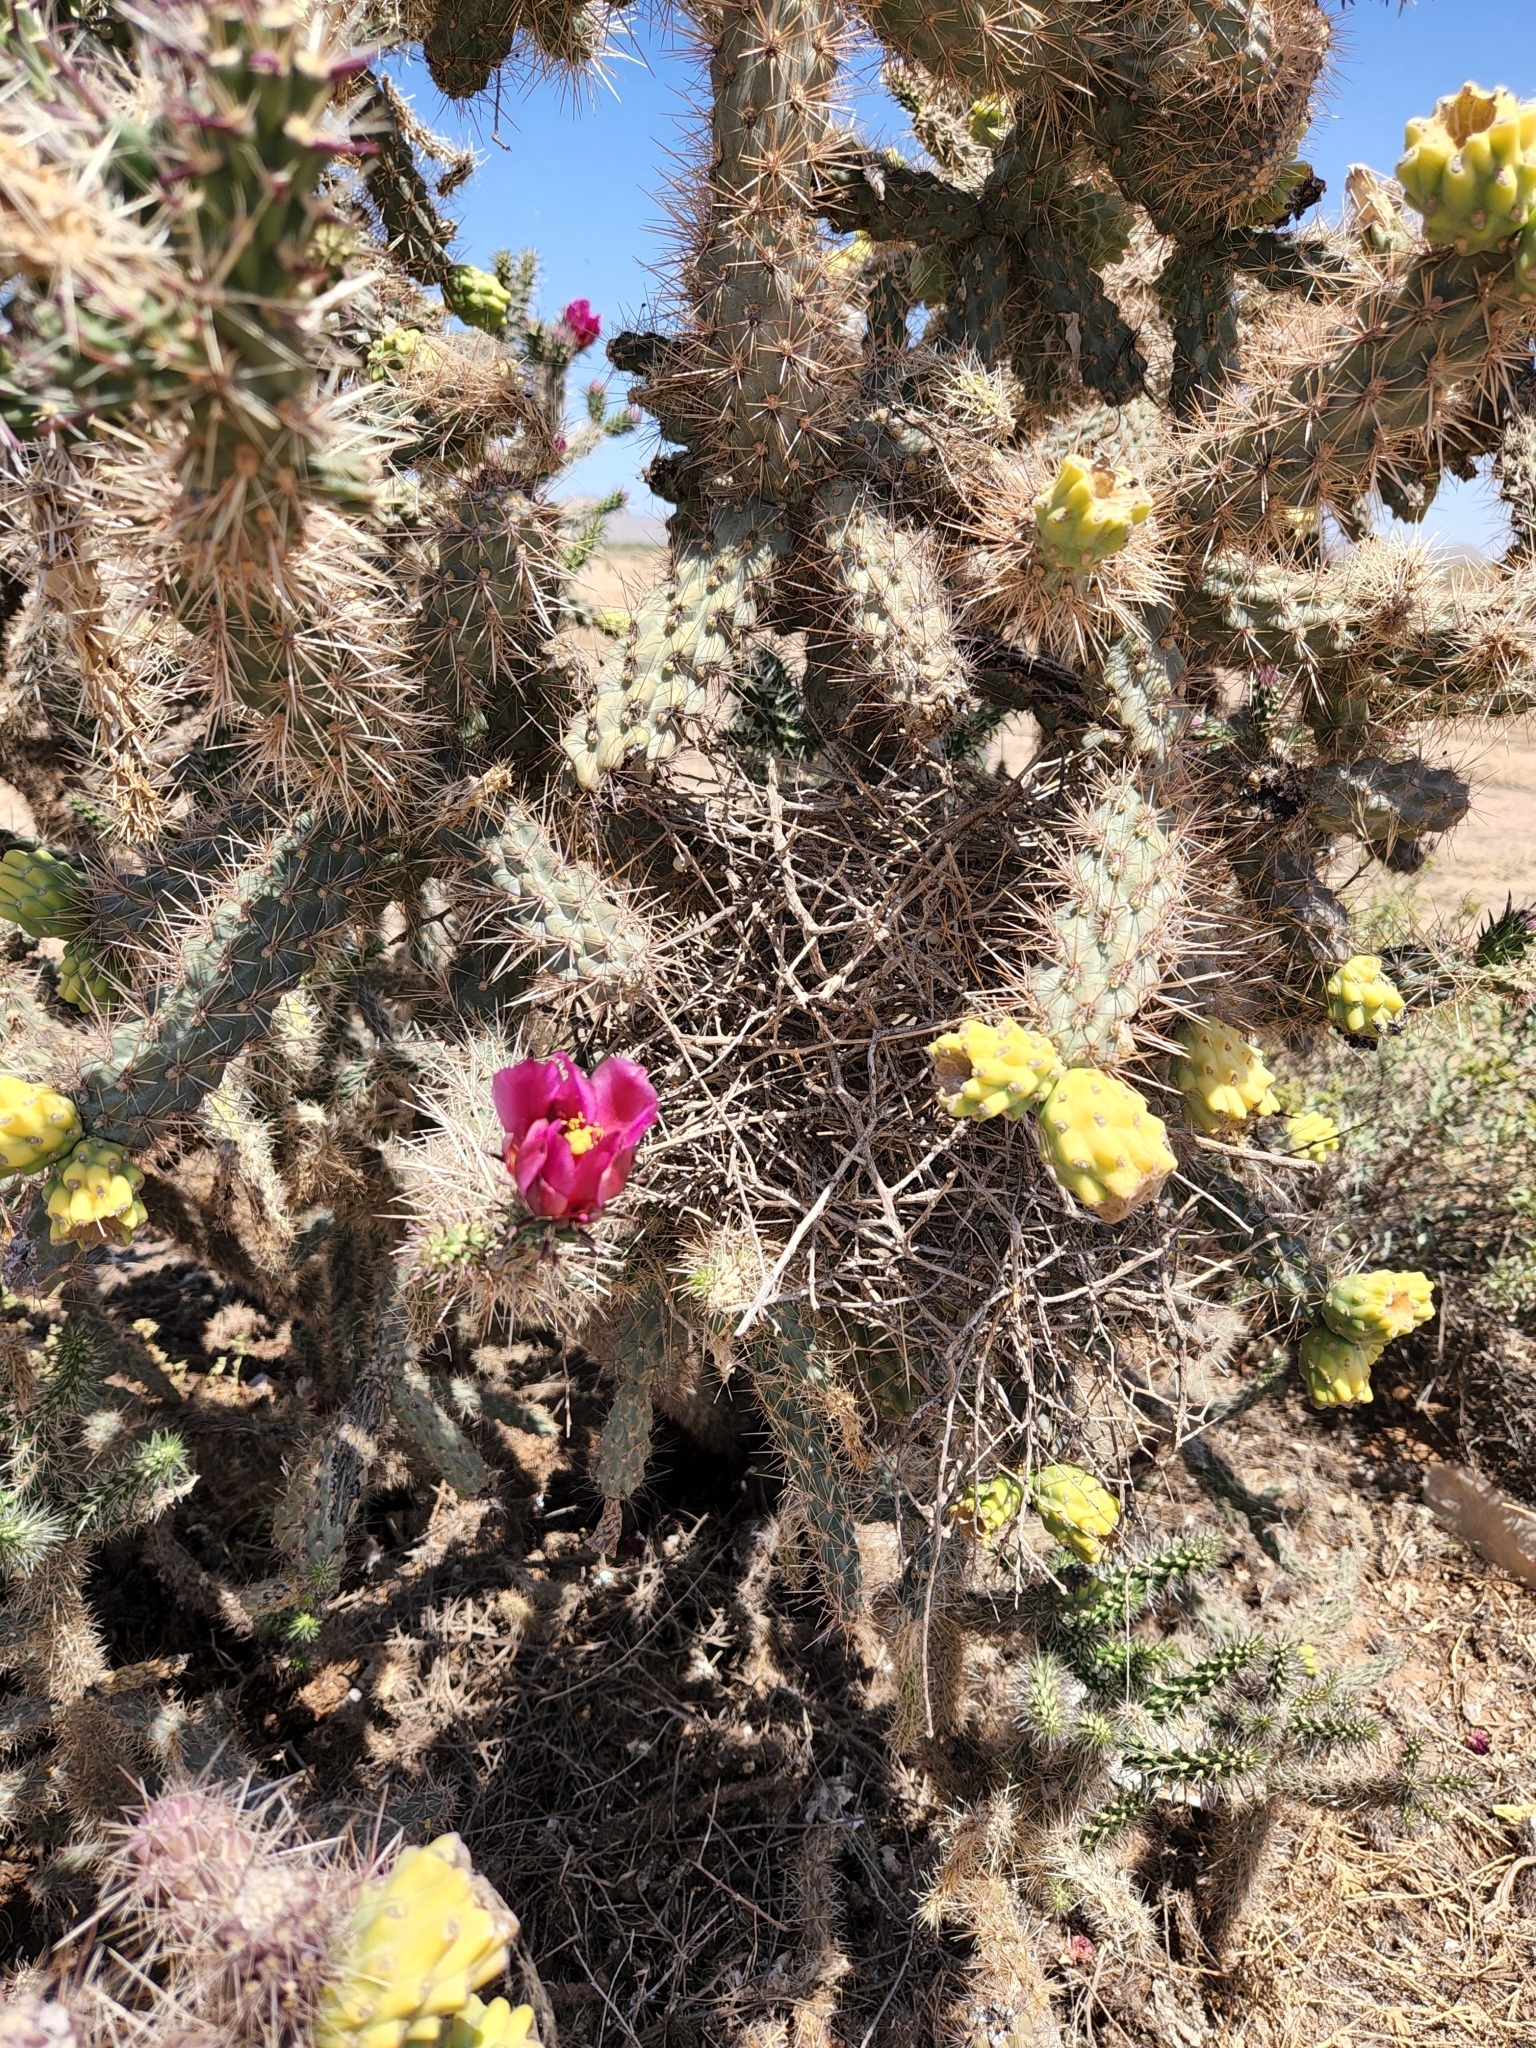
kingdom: Plantae
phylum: Tracheophyta
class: Magnoliopsida
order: Caryophyllales
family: Cactaceae
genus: Cylindropuntia
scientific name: Cylindropuntia imbricata
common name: Candelabrum cactus
